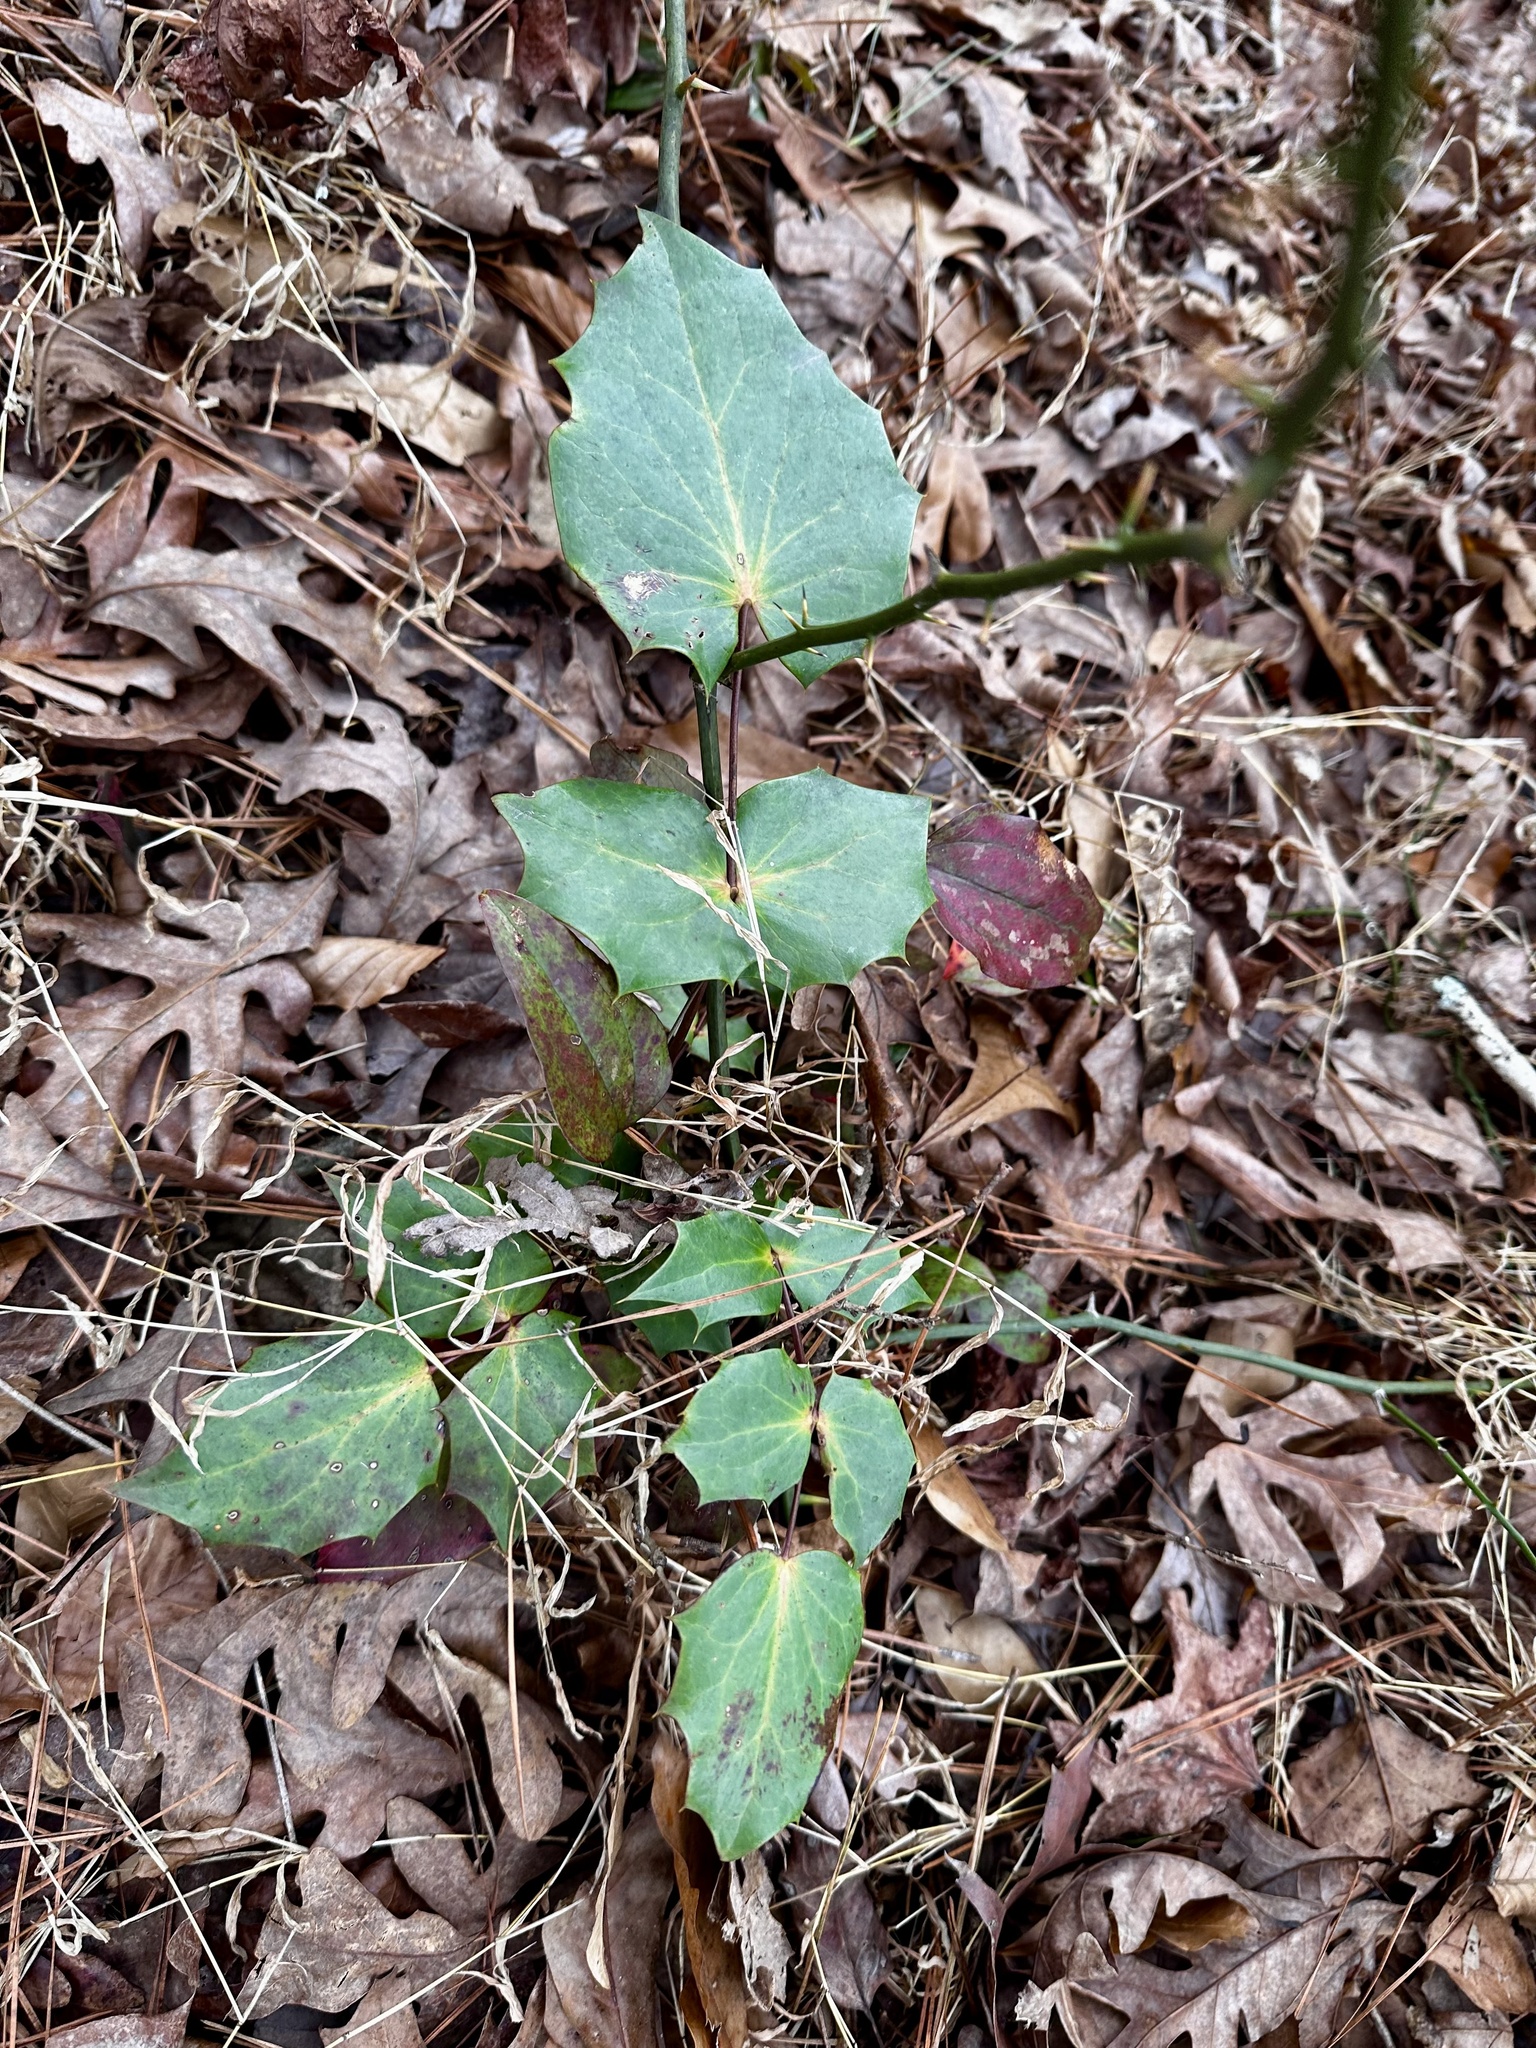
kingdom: Plantae
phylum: Tracheophyta
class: Magnoliopsida
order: Ranunculales
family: Berberidaceae
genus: Mahonia
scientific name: Mahonia bealei
